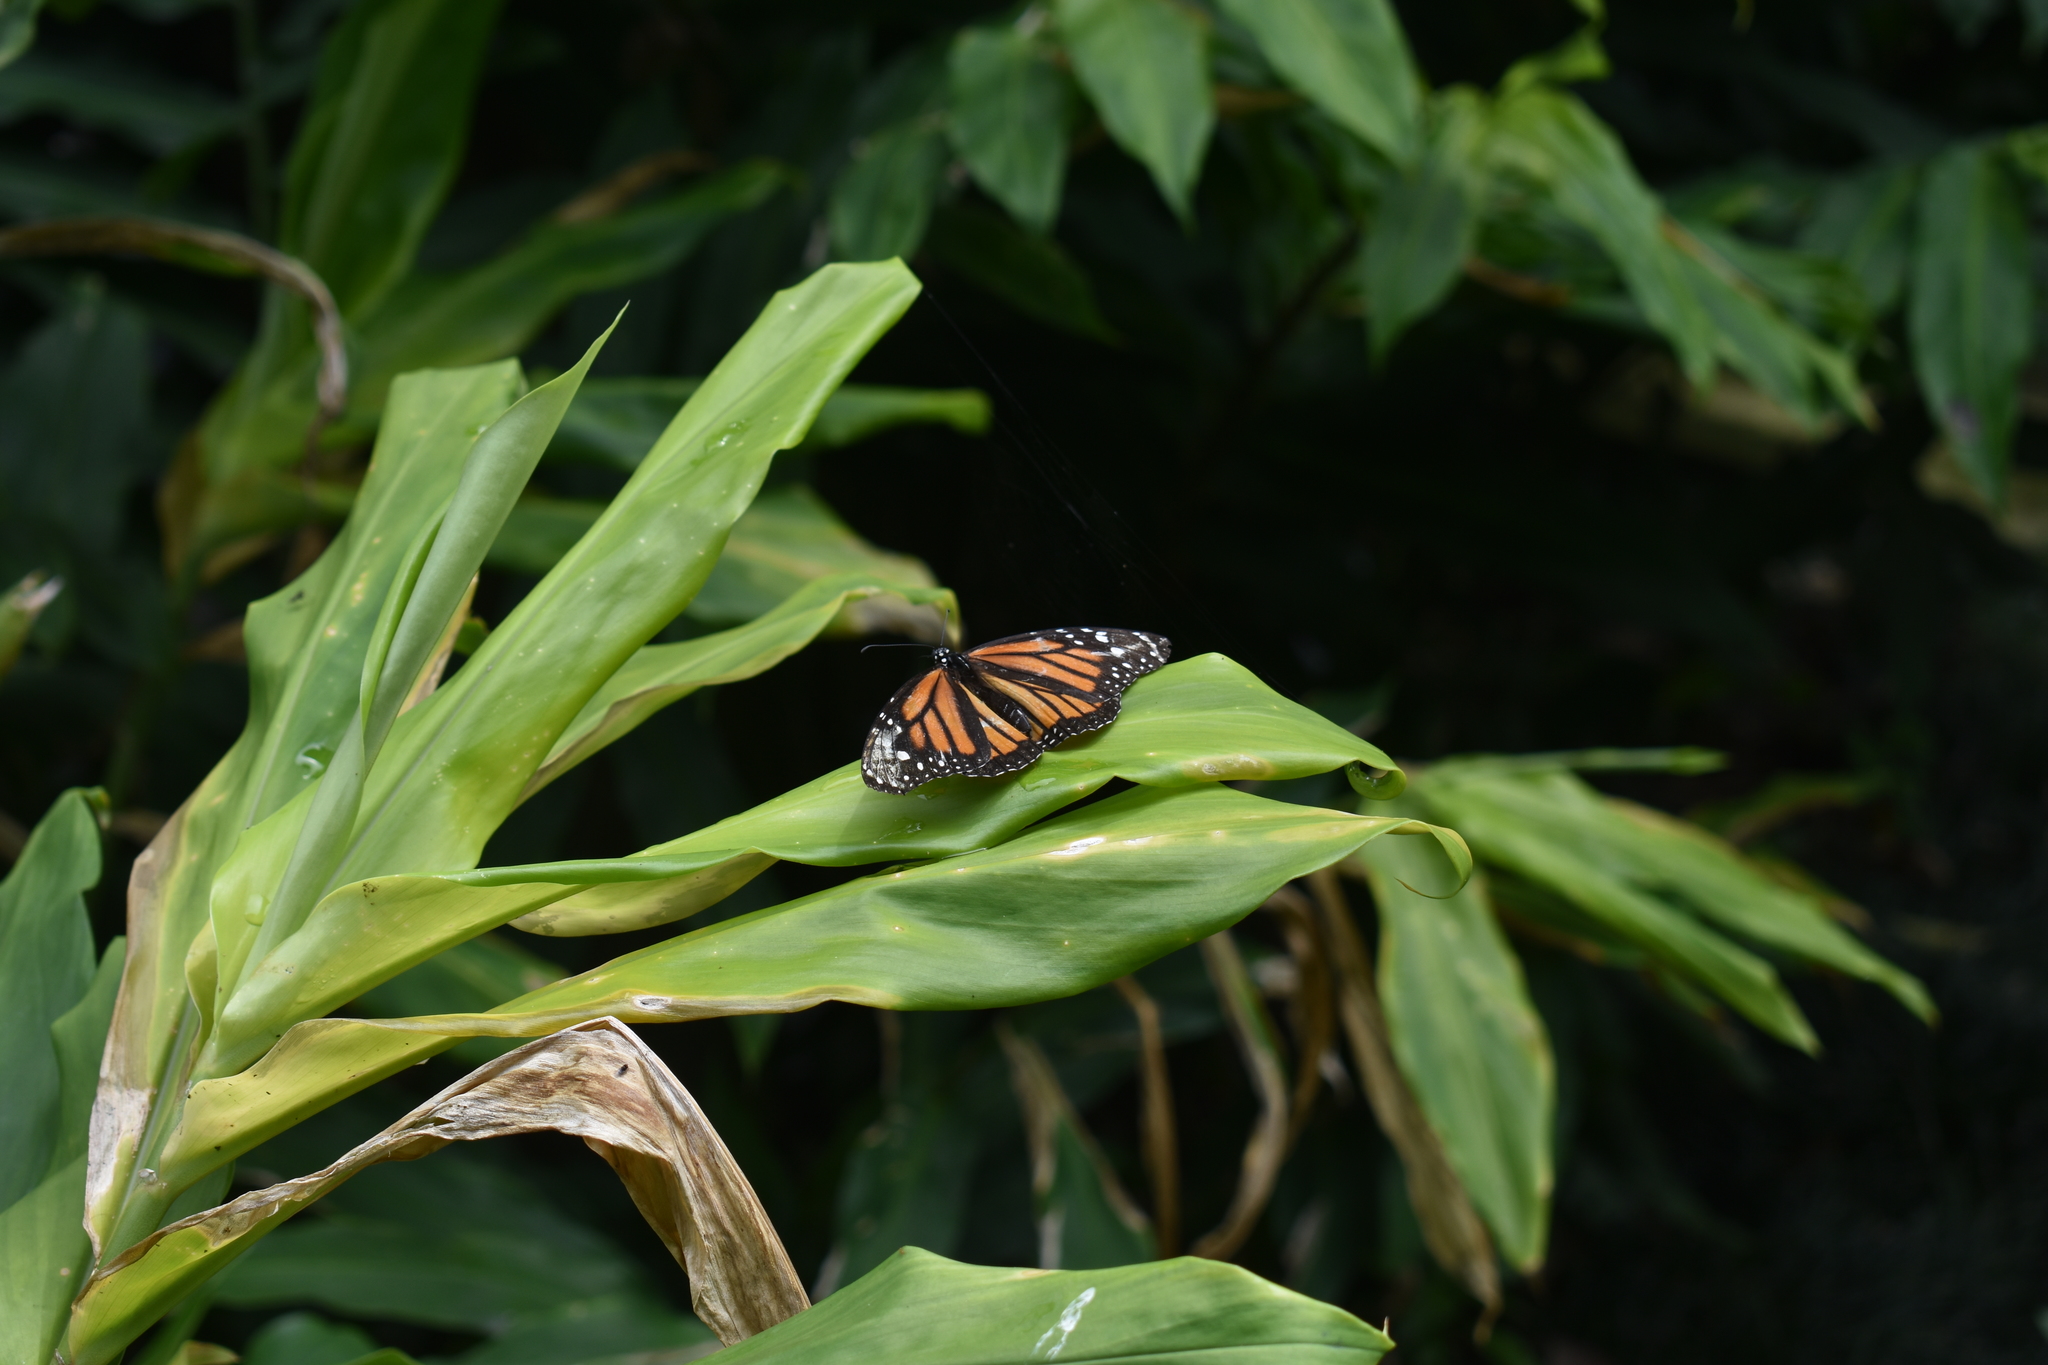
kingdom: Animalia
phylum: Arthropoda
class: Insecta
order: Lepidoptera
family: Nymphalidae
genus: Danaus
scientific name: Danaus plexippus
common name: Monarch
